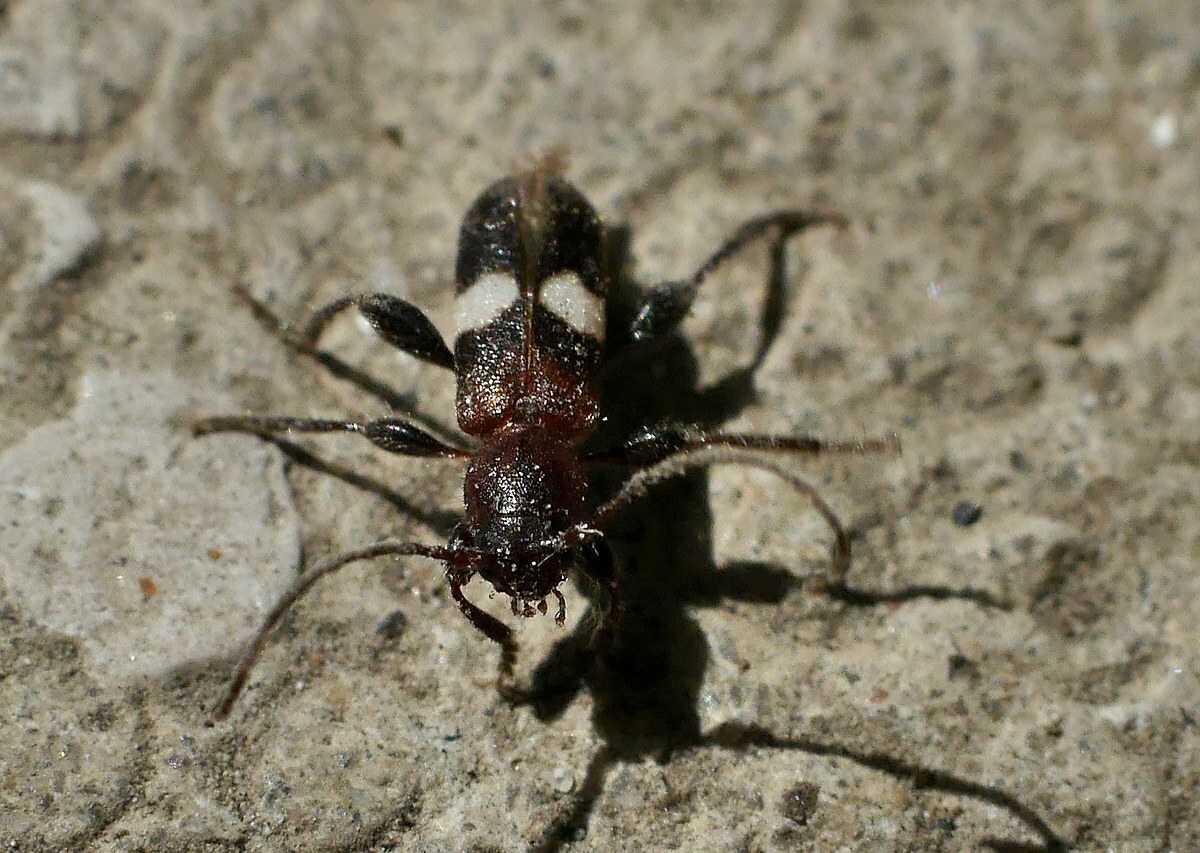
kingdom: Animalia
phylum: Arthropoda
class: Insecta
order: Coleoptera
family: Cerambycidae
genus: Poecilium
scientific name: Poecilium fasciatum
